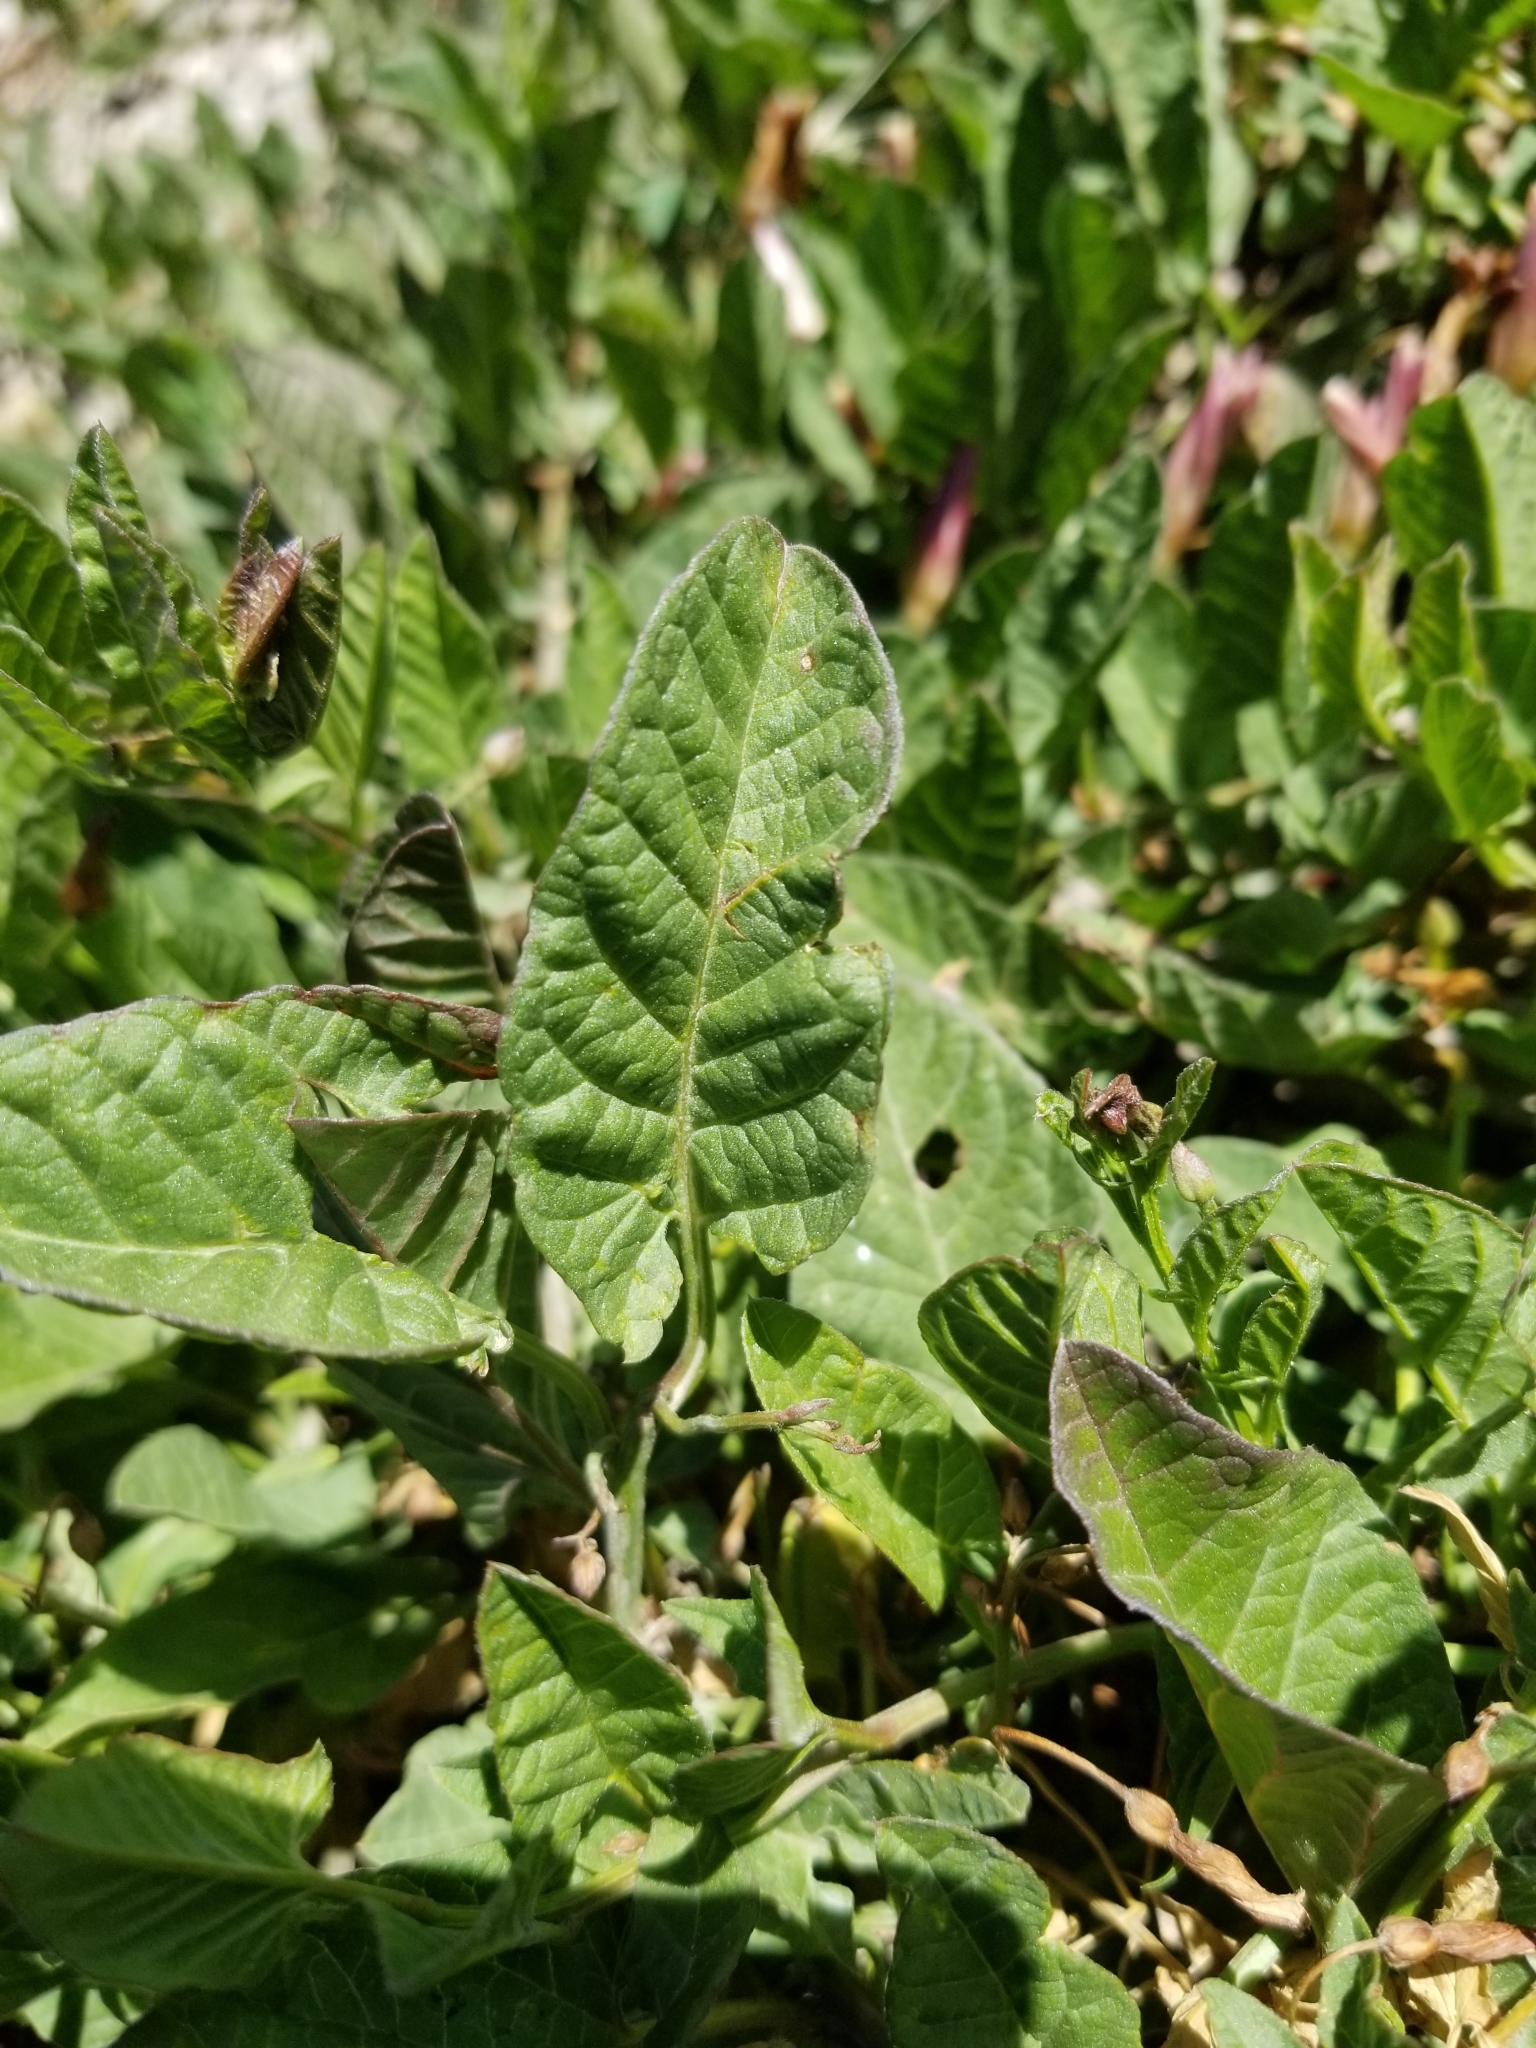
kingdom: Plantae
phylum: Tracheophyta
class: Magnoliopsida
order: Solanales
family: Convolvulaceae
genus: Convolvulus
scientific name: Convolvulus arvensis
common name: Field bindweed
